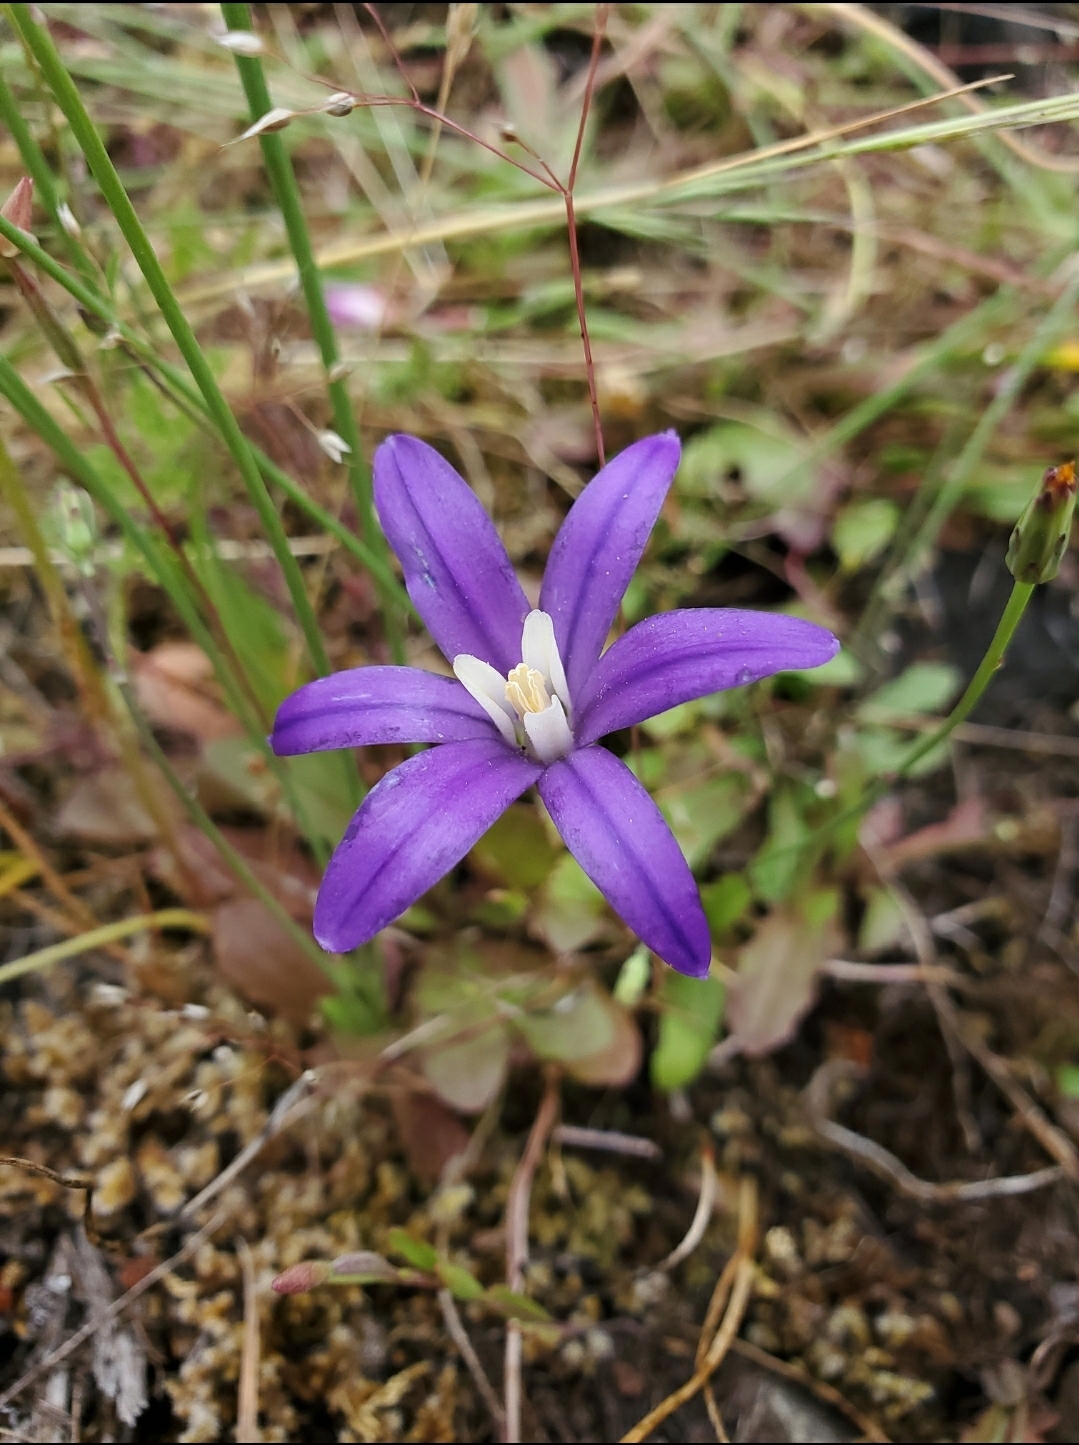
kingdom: Plantae
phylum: Tracheophyta
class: Liliopsida
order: Asparagales
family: Asparagaceae
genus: Brodiaea
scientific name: Brodiaea coronaria
